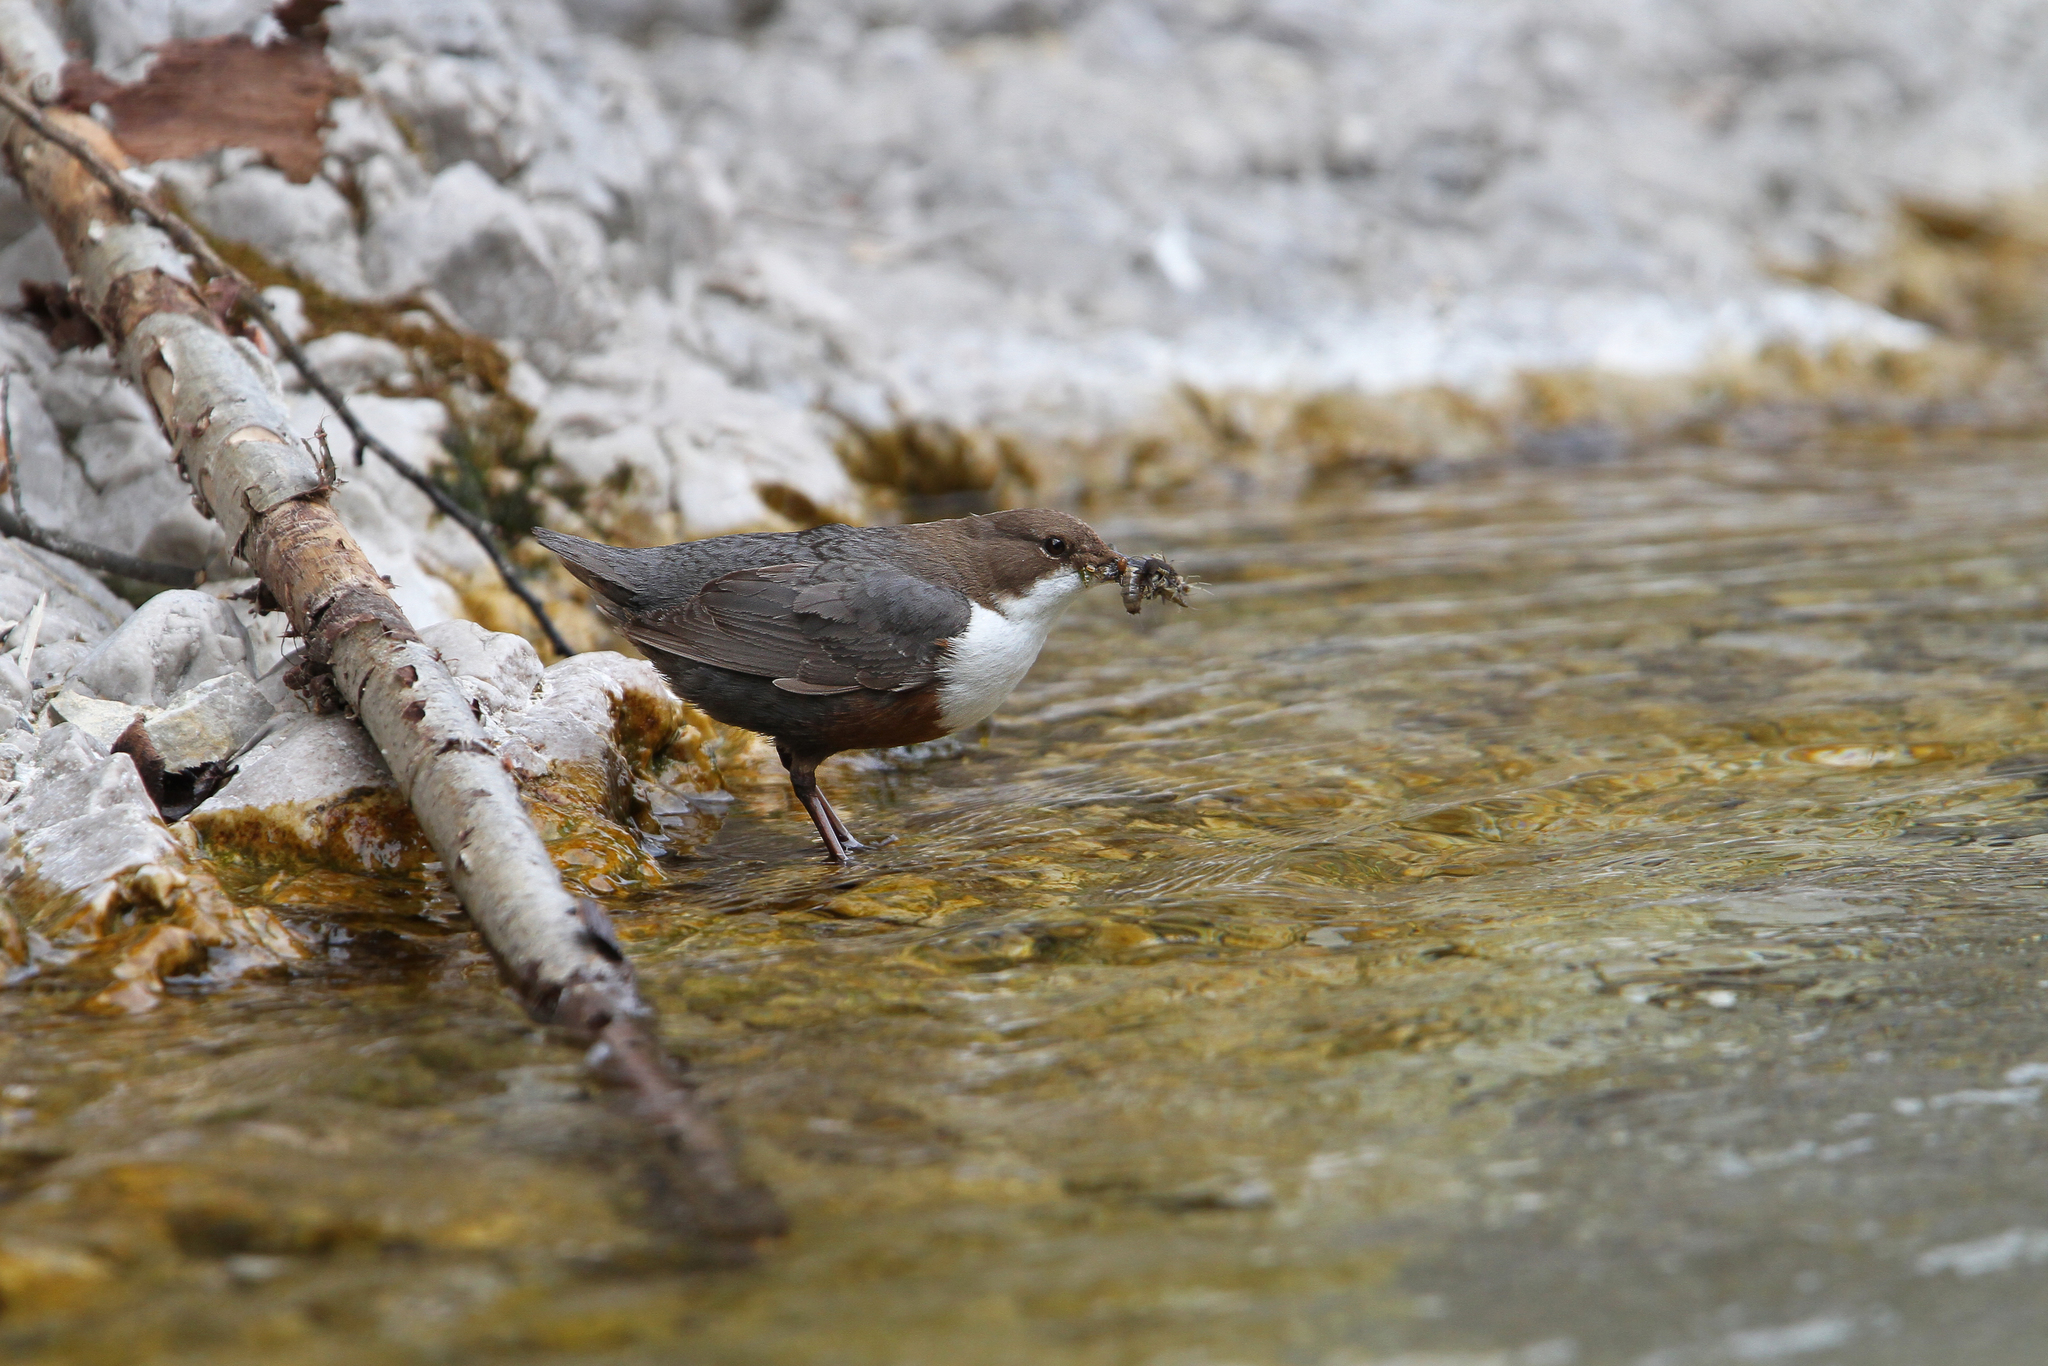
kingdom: Animalia
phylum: Chordata
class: Aves
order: Passeriformes
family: Cinclidae
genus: Cinclus
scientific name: Cinclus cinclus
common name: White-throated dipper
